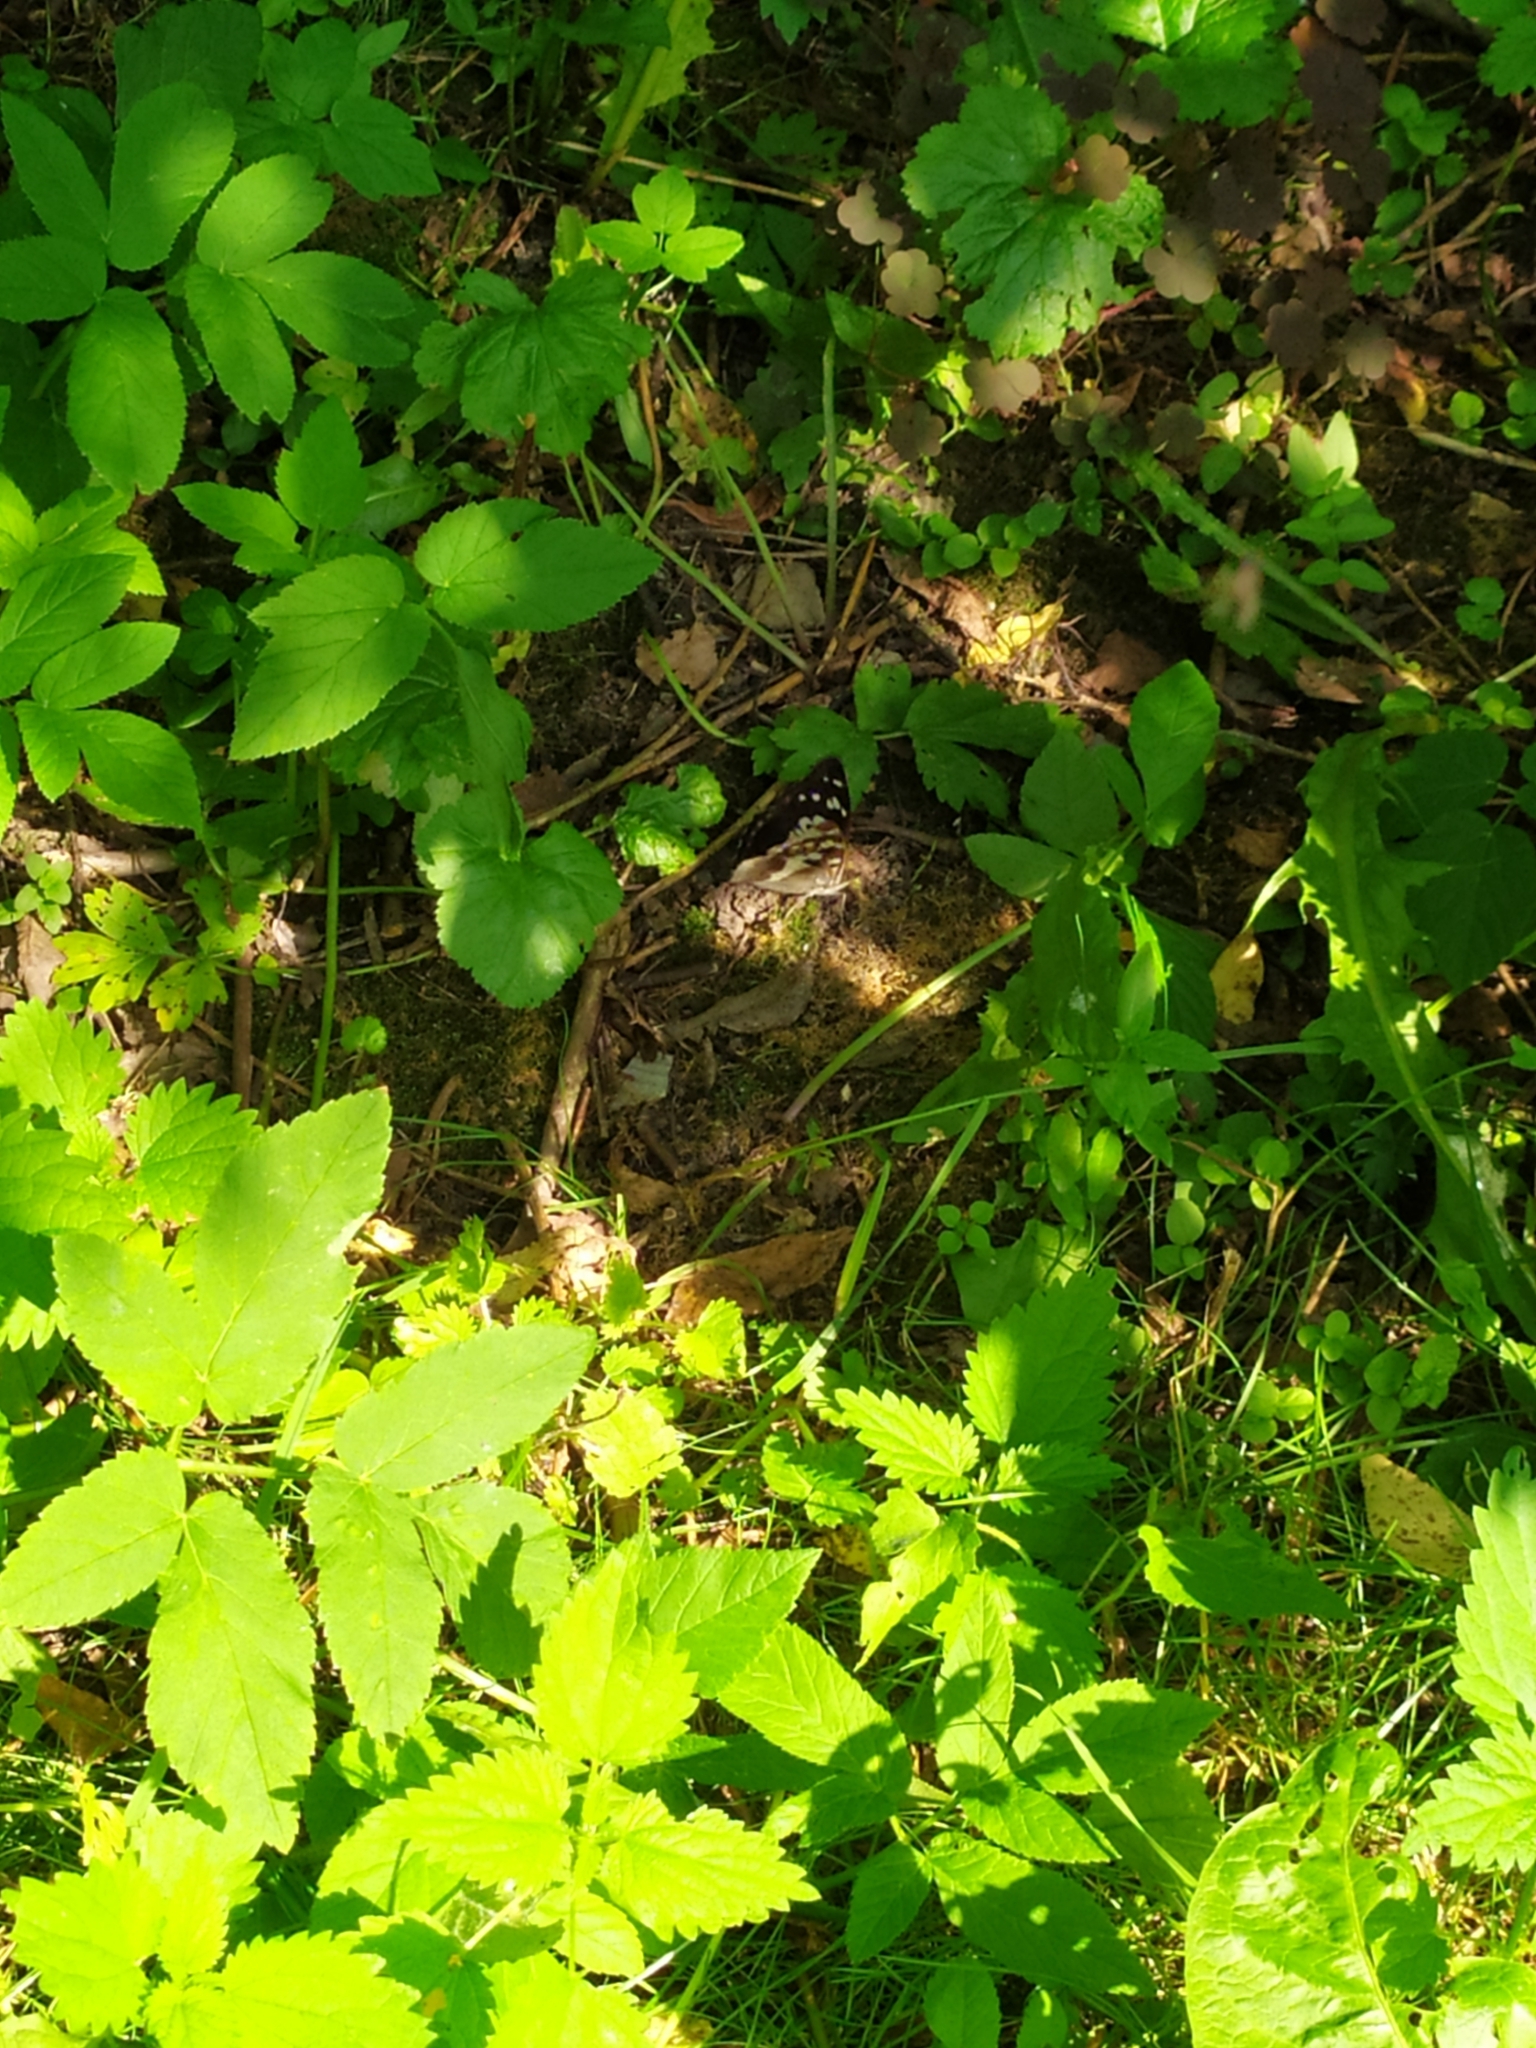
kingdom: Animalia
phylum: Arthropoda
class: Insecta
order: Lepidoptera
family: Nymphalidae
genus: Apatura
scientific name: Apatura iris
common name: Purple emperor
